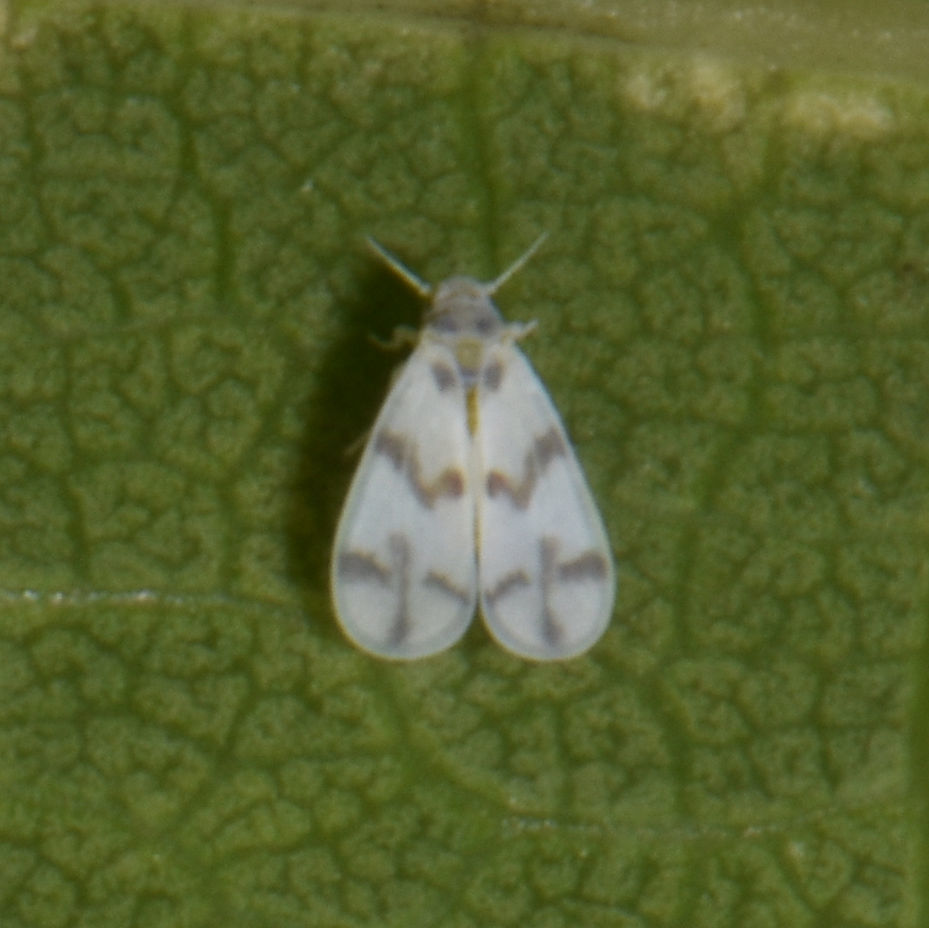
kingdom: Animalia
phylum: Arthropoda
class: Insecta
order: Hemiptera
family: Aleyrodidae
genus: Tetraleurodes
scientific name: Tetraleurodes mori
